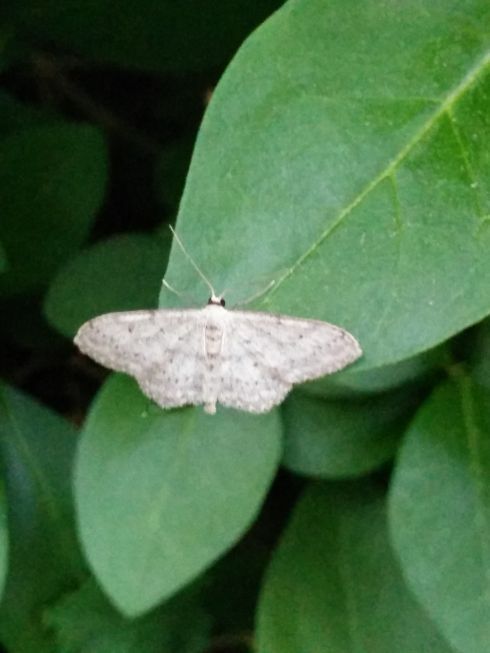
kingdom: Animalia
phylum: Arthropoda
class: Insecta
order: Lepidoptera
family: Geometridae
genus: Idaea
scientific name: Idaea seriata
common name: Small dusty wave
